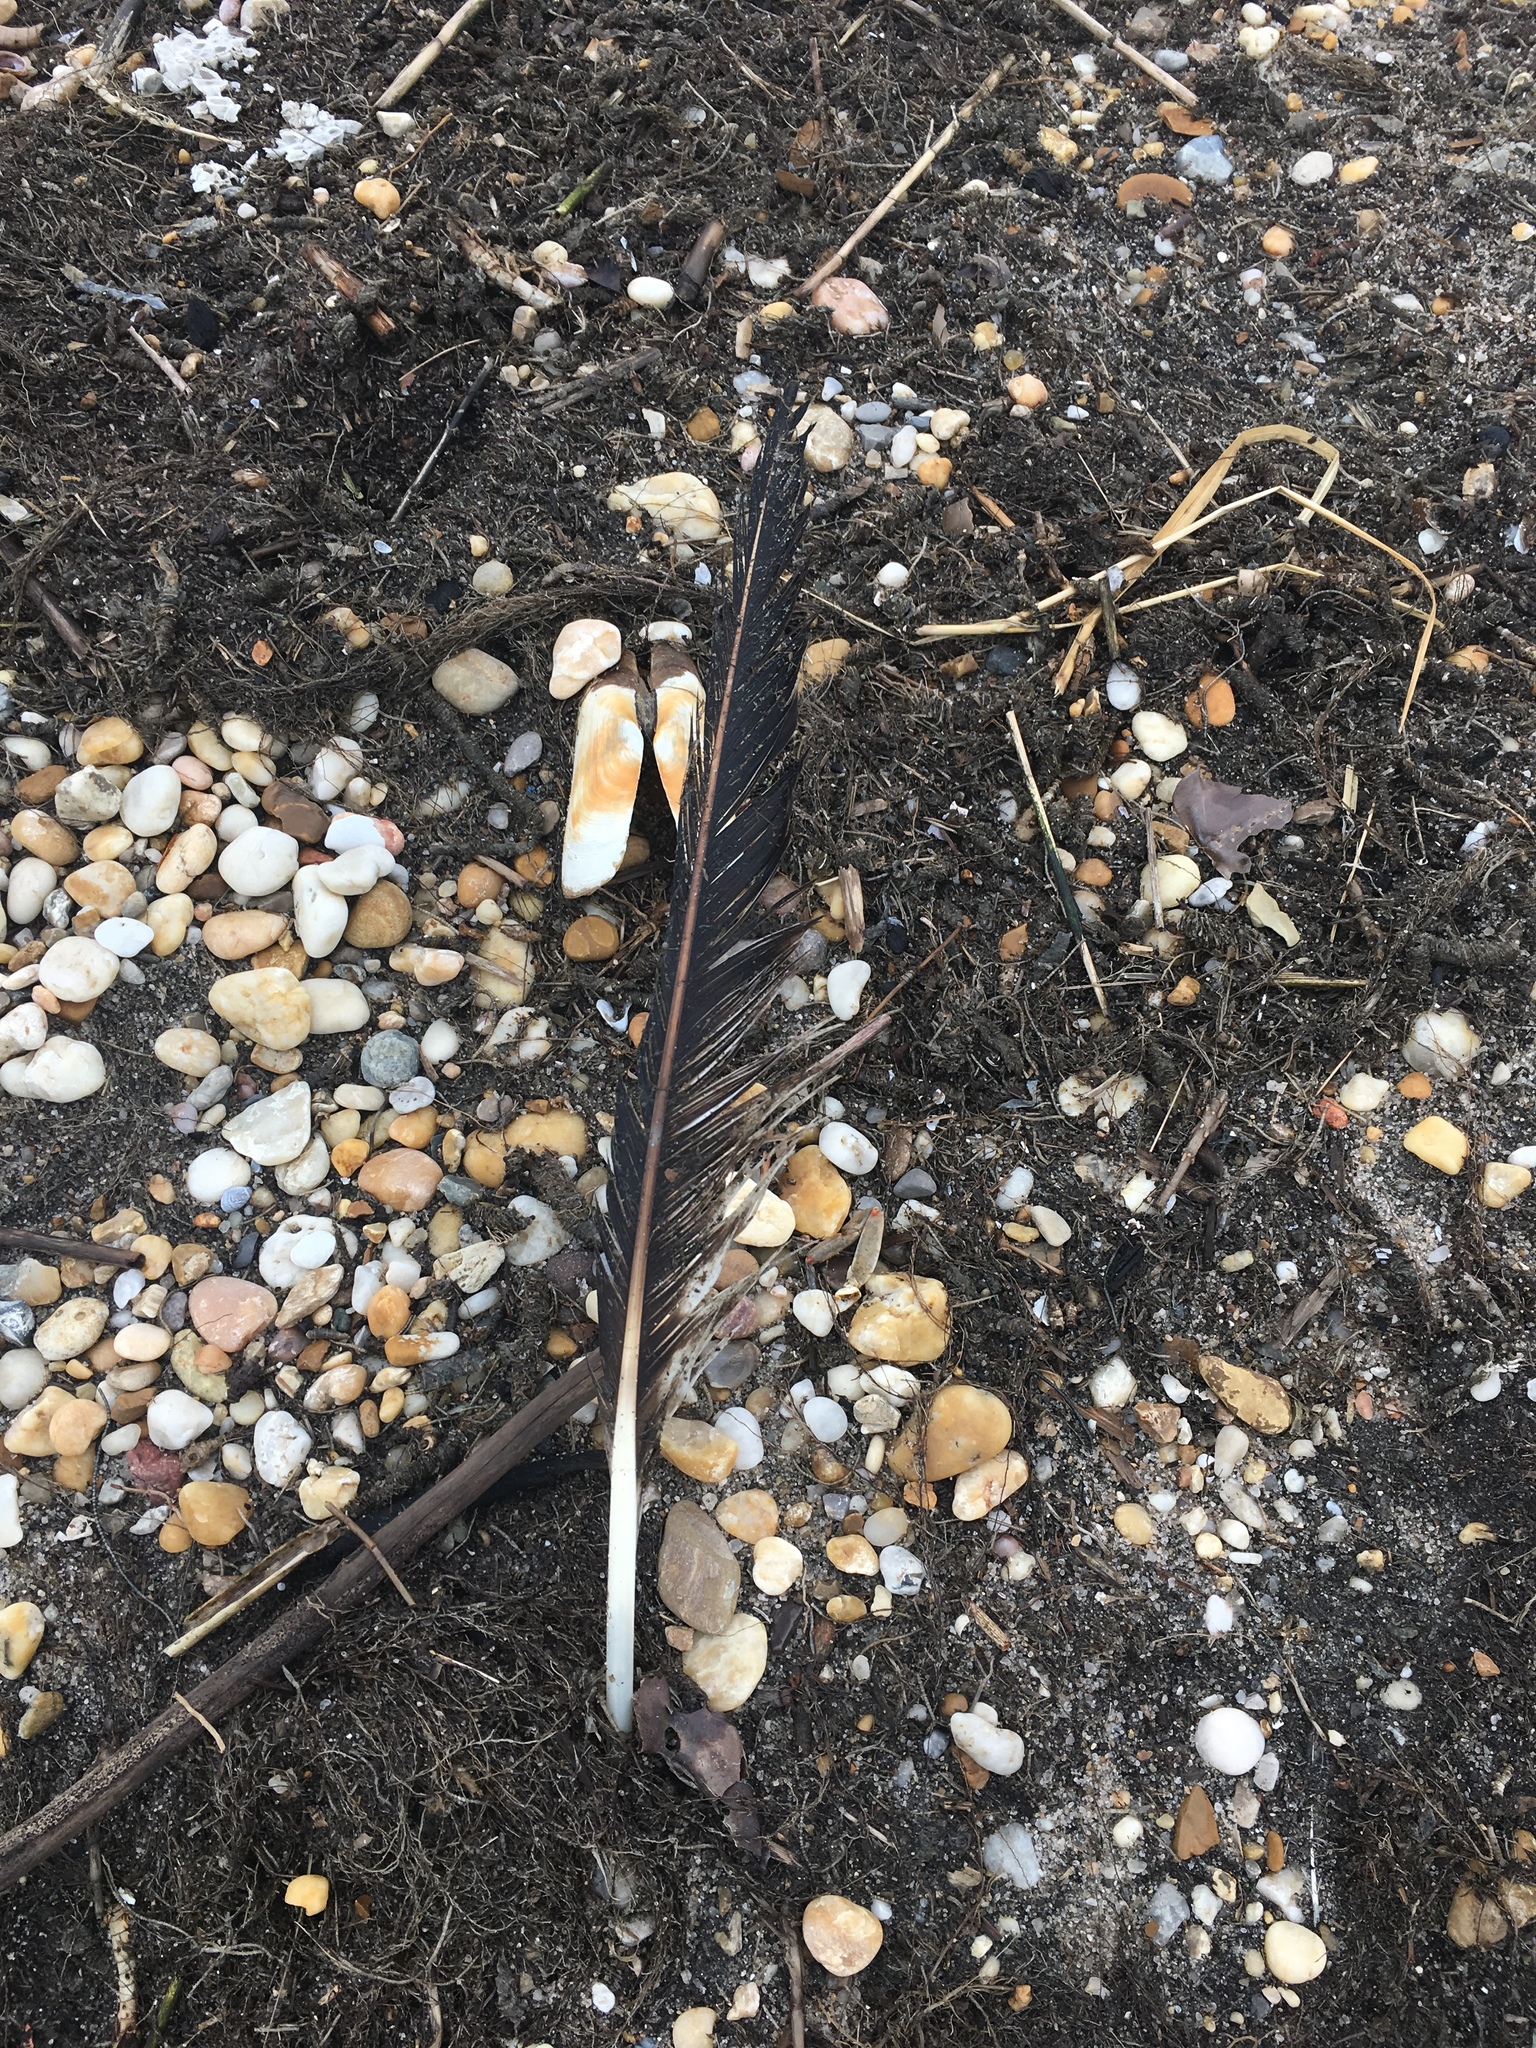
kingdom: Animalia
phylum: Chordata
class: Aves
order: Accipitriformes
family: Pandionidae
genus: Pandion
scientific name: Pandion haliaetus
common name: Osprey
